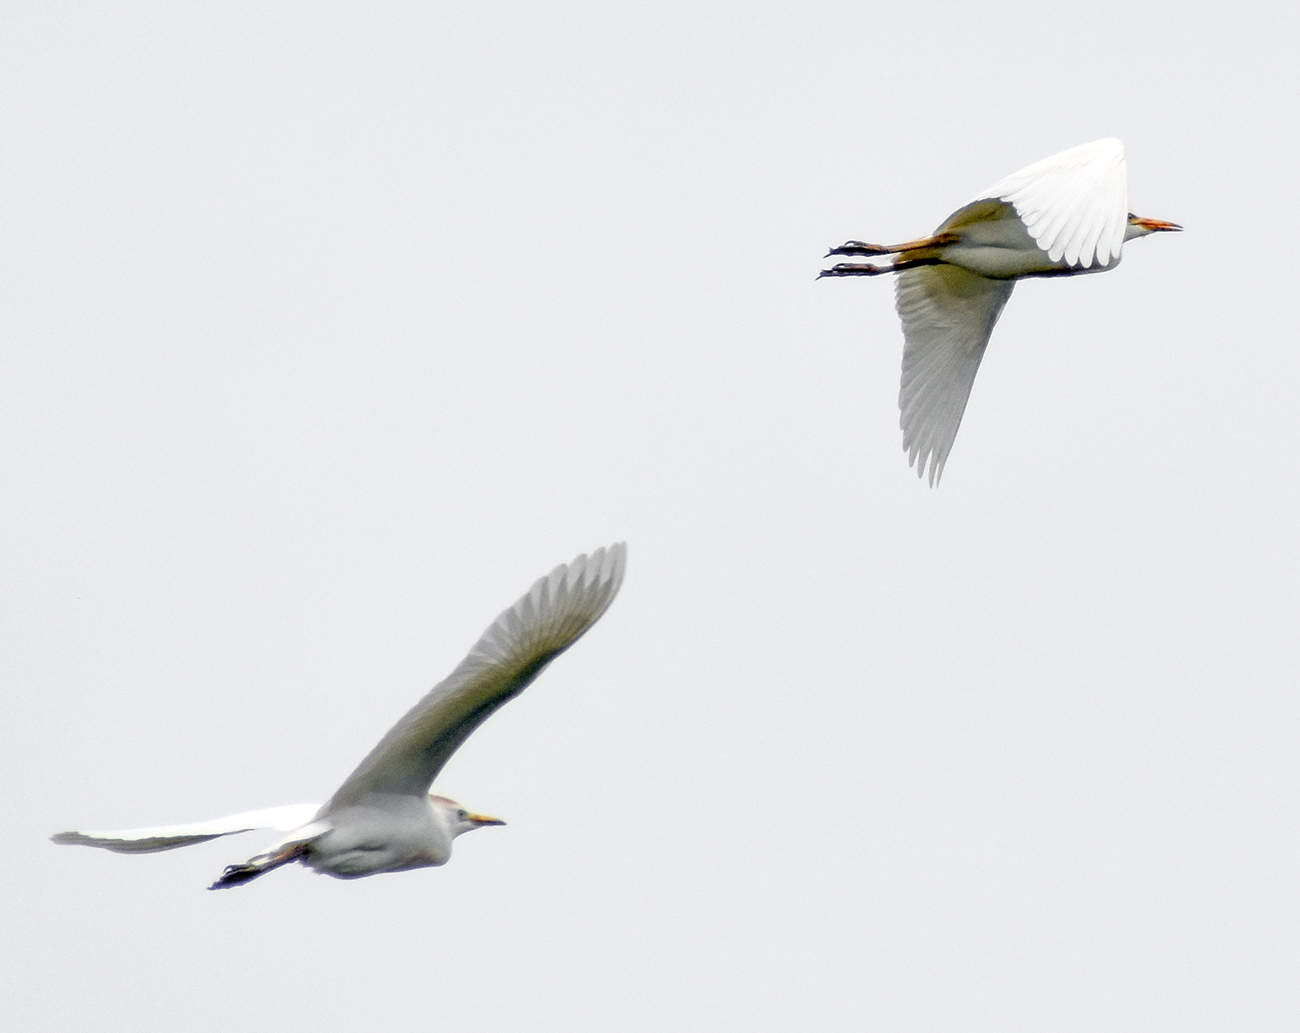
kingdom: Animalia
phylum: Chordata
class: Aves
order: Pelecaniformes
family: Ardeidae
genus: Bubulcus
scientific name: Bubulcus ibis
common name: Cattle egret
